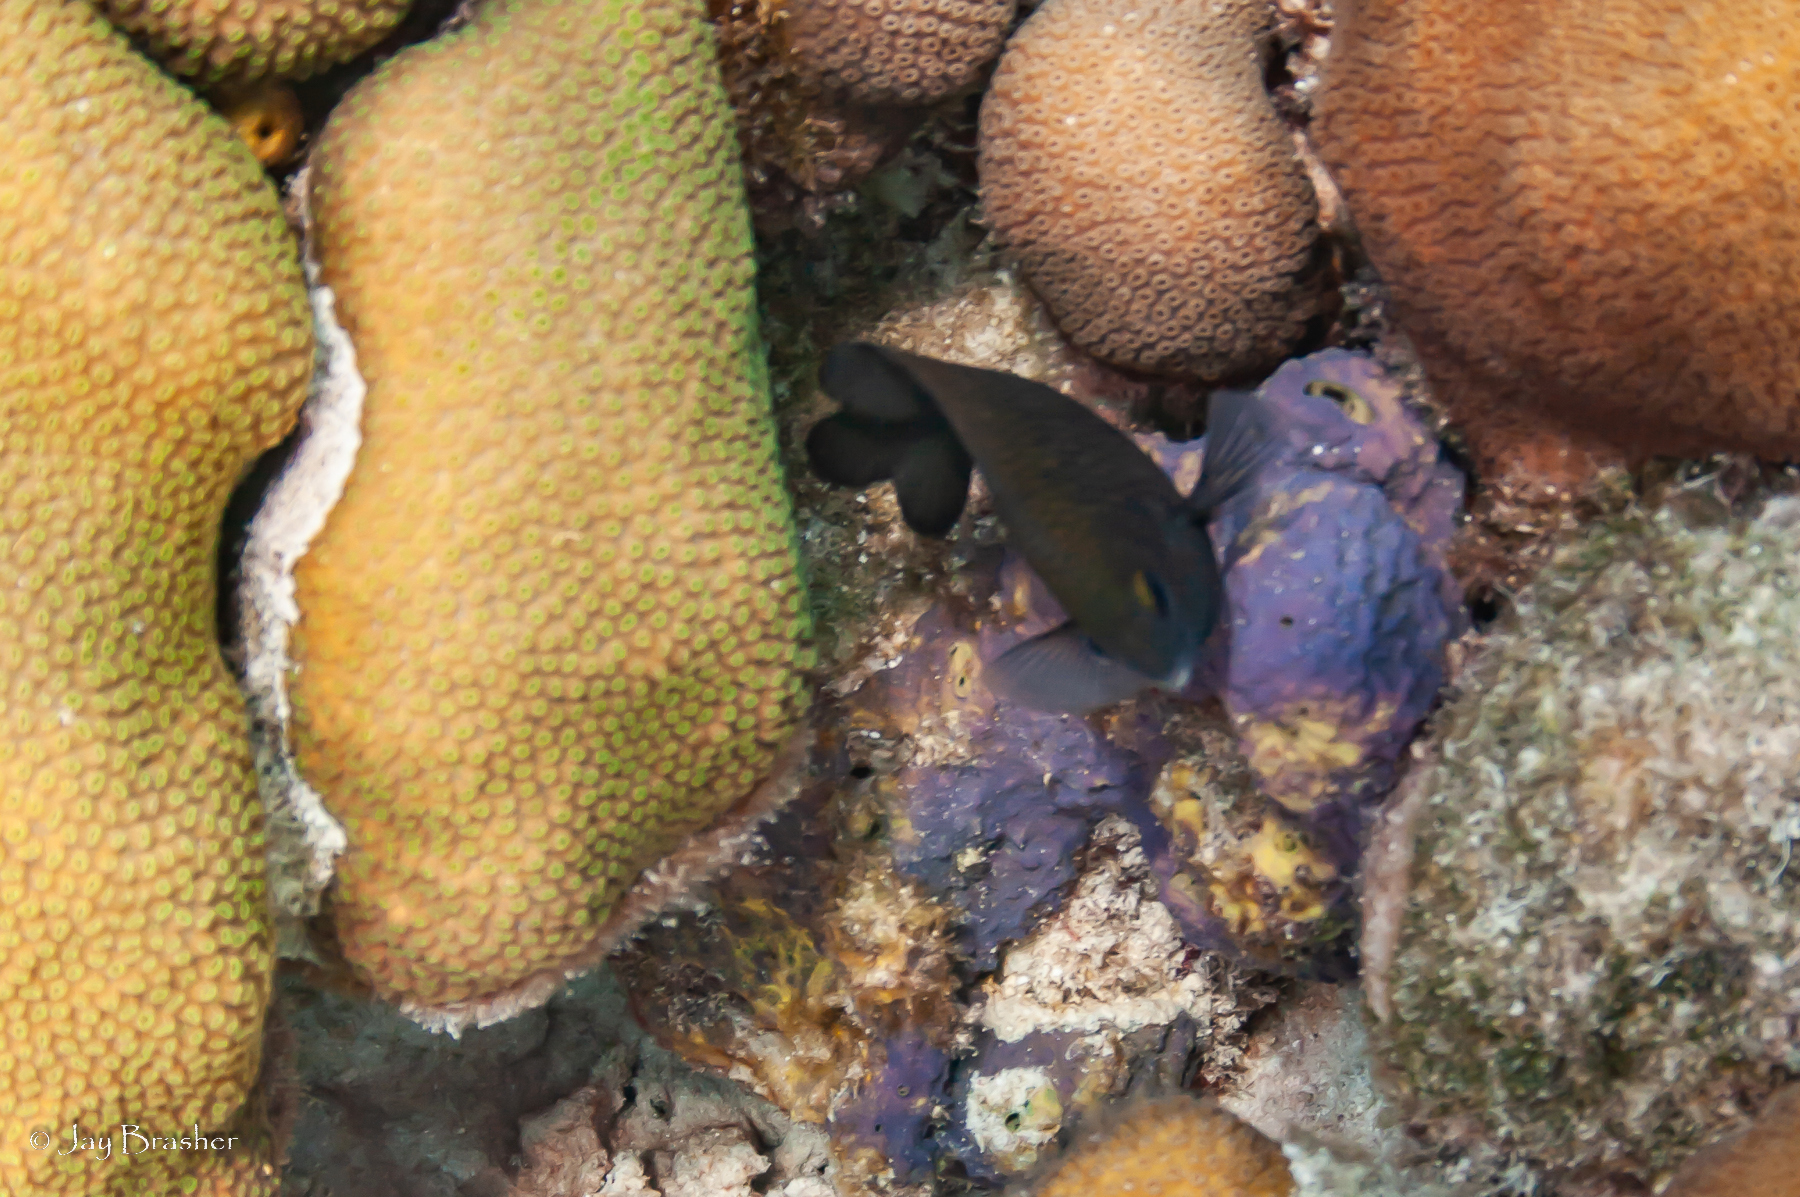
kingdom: Animalia
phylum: Chordata
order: Perciformes
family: Pomacentridae
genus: Stegastes
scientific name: Stegastes diencaeus
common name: Longfin damselfish
